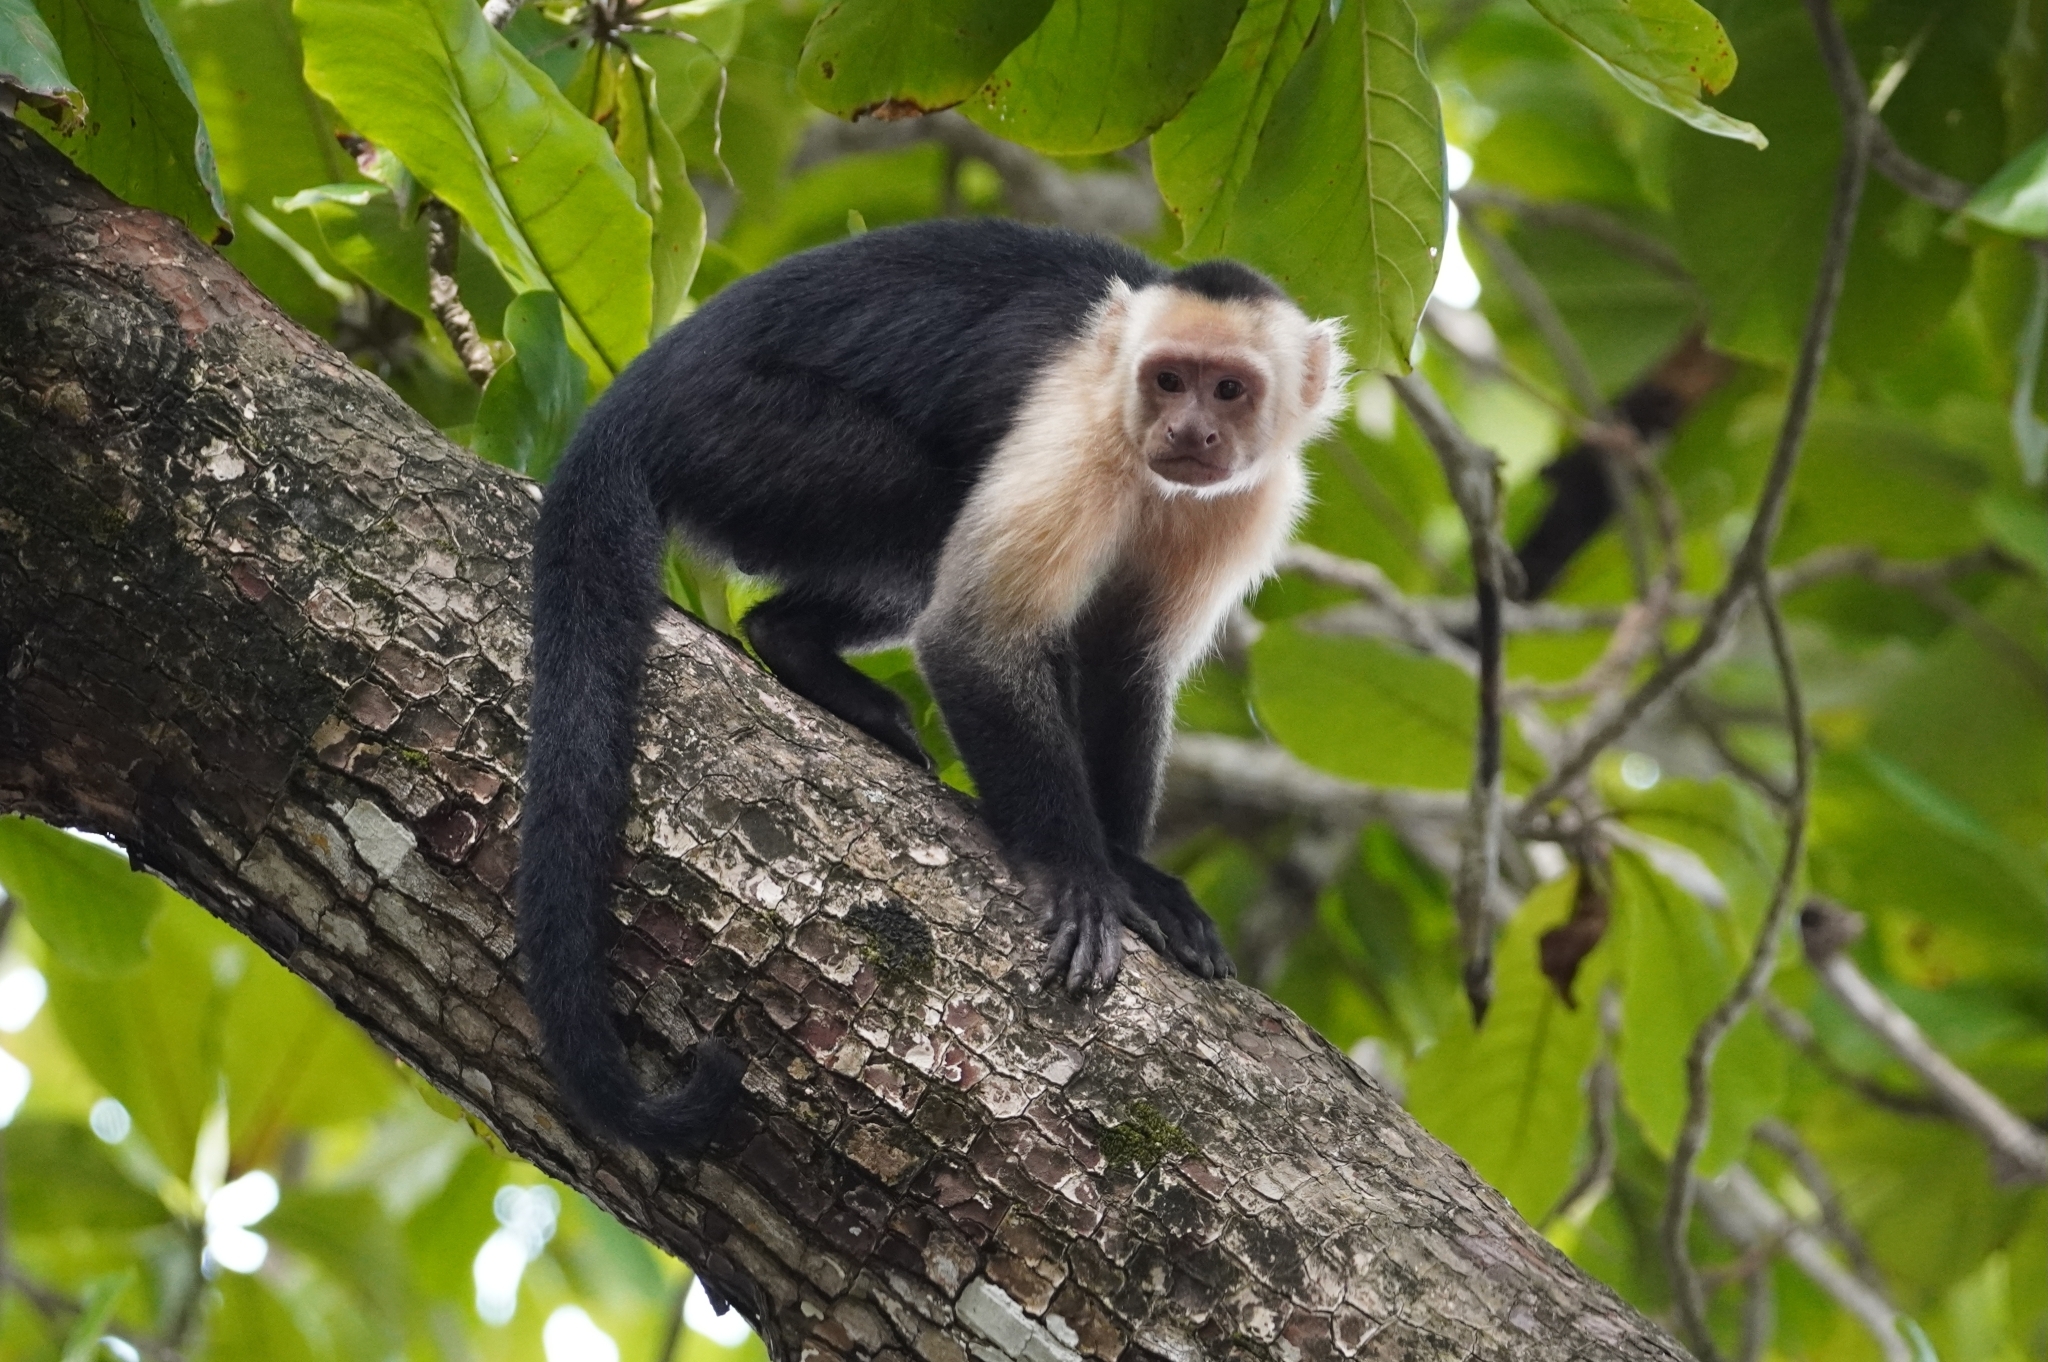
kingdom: Animalia
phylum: Chordata
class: Mammalia
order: Primates
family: Cebidae
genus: Cebus
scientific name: Cebus imitator
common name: Panamanian white-faced capuchin
